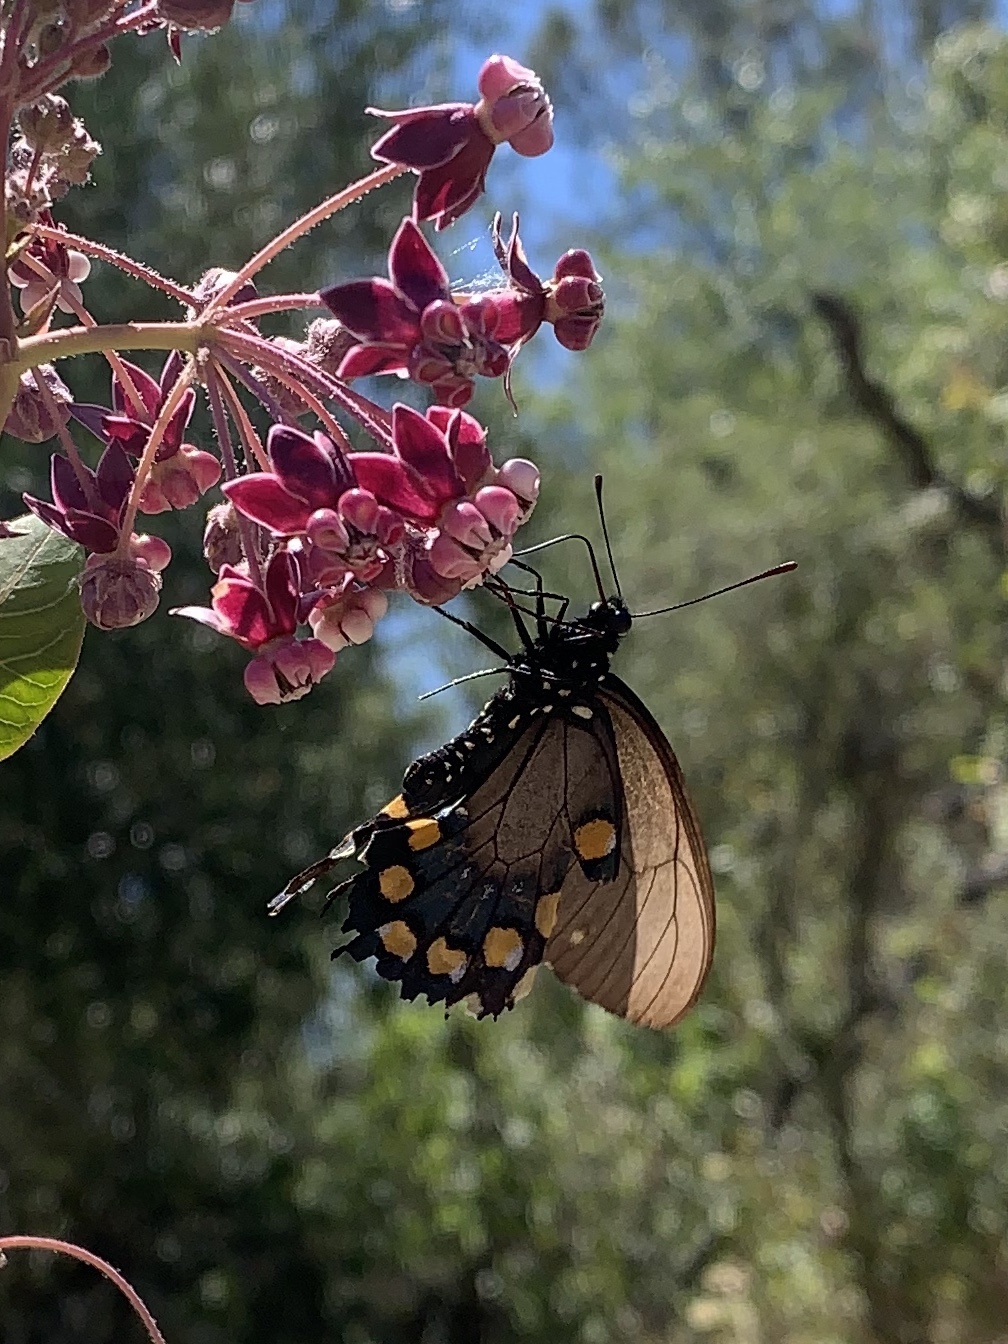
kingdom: Animalia
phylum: Arthropoda
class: Insecta
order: Lepidoptera
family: Papilionidae
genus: Battus
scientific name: Battus philenor
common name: Pipevine swallowtail
